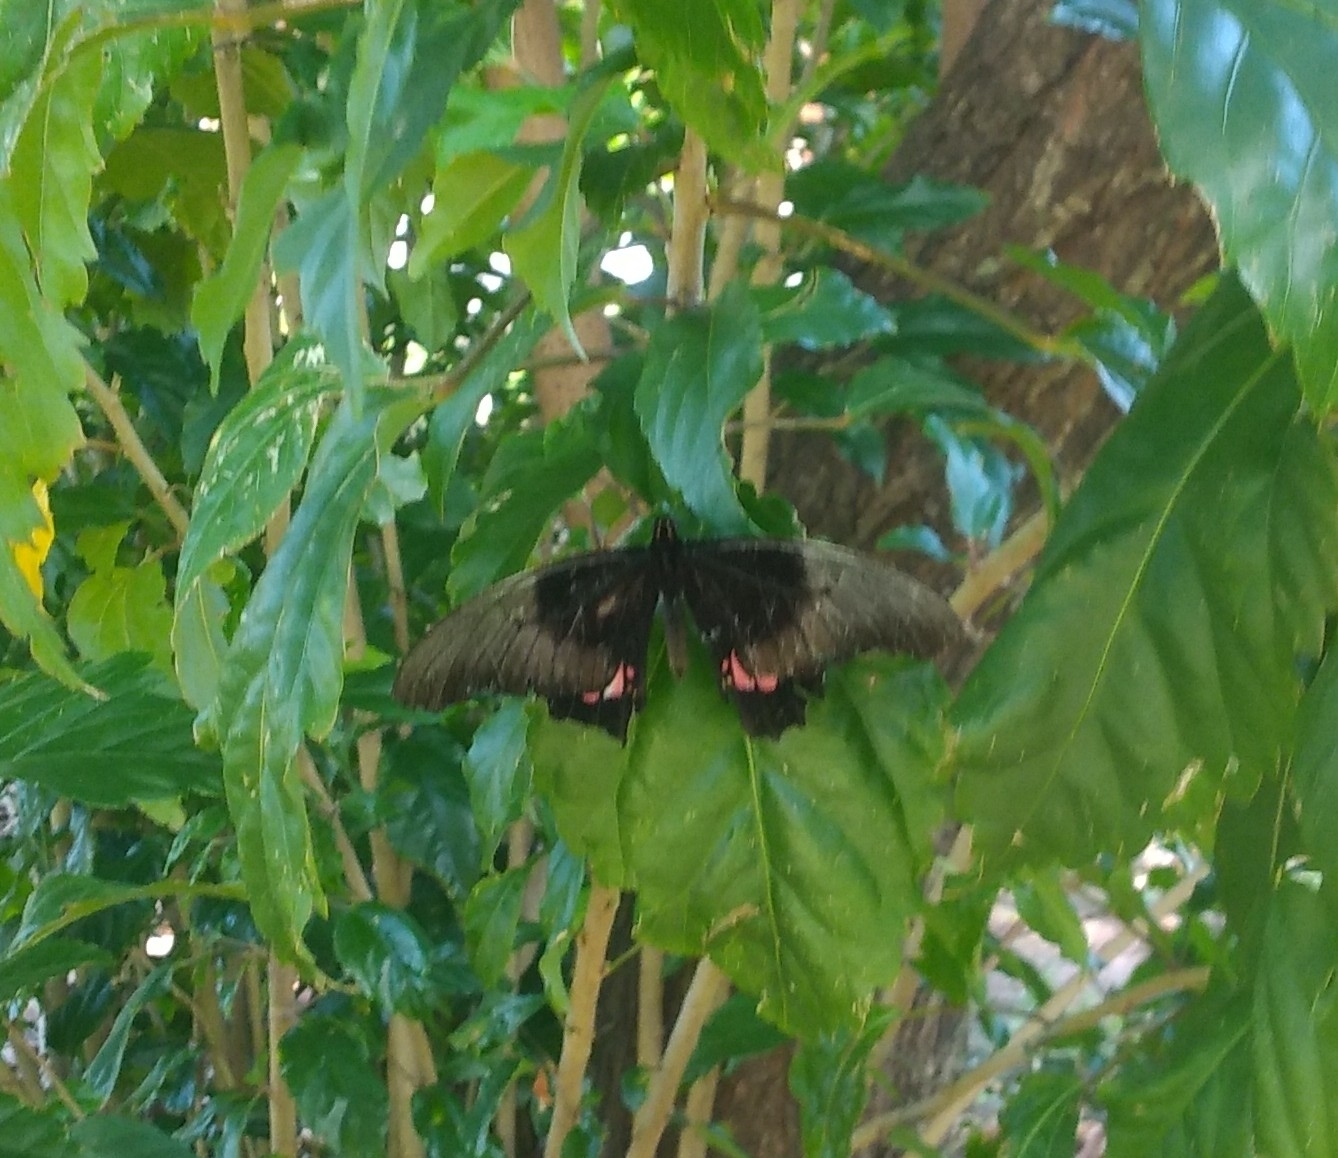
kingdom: Animalia
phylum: Arthropoda
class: Insecta
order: Lepidoptera
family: Papilionidae
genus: Papilio
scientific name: Papilio anchisiades
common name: Idaes swallowtail
